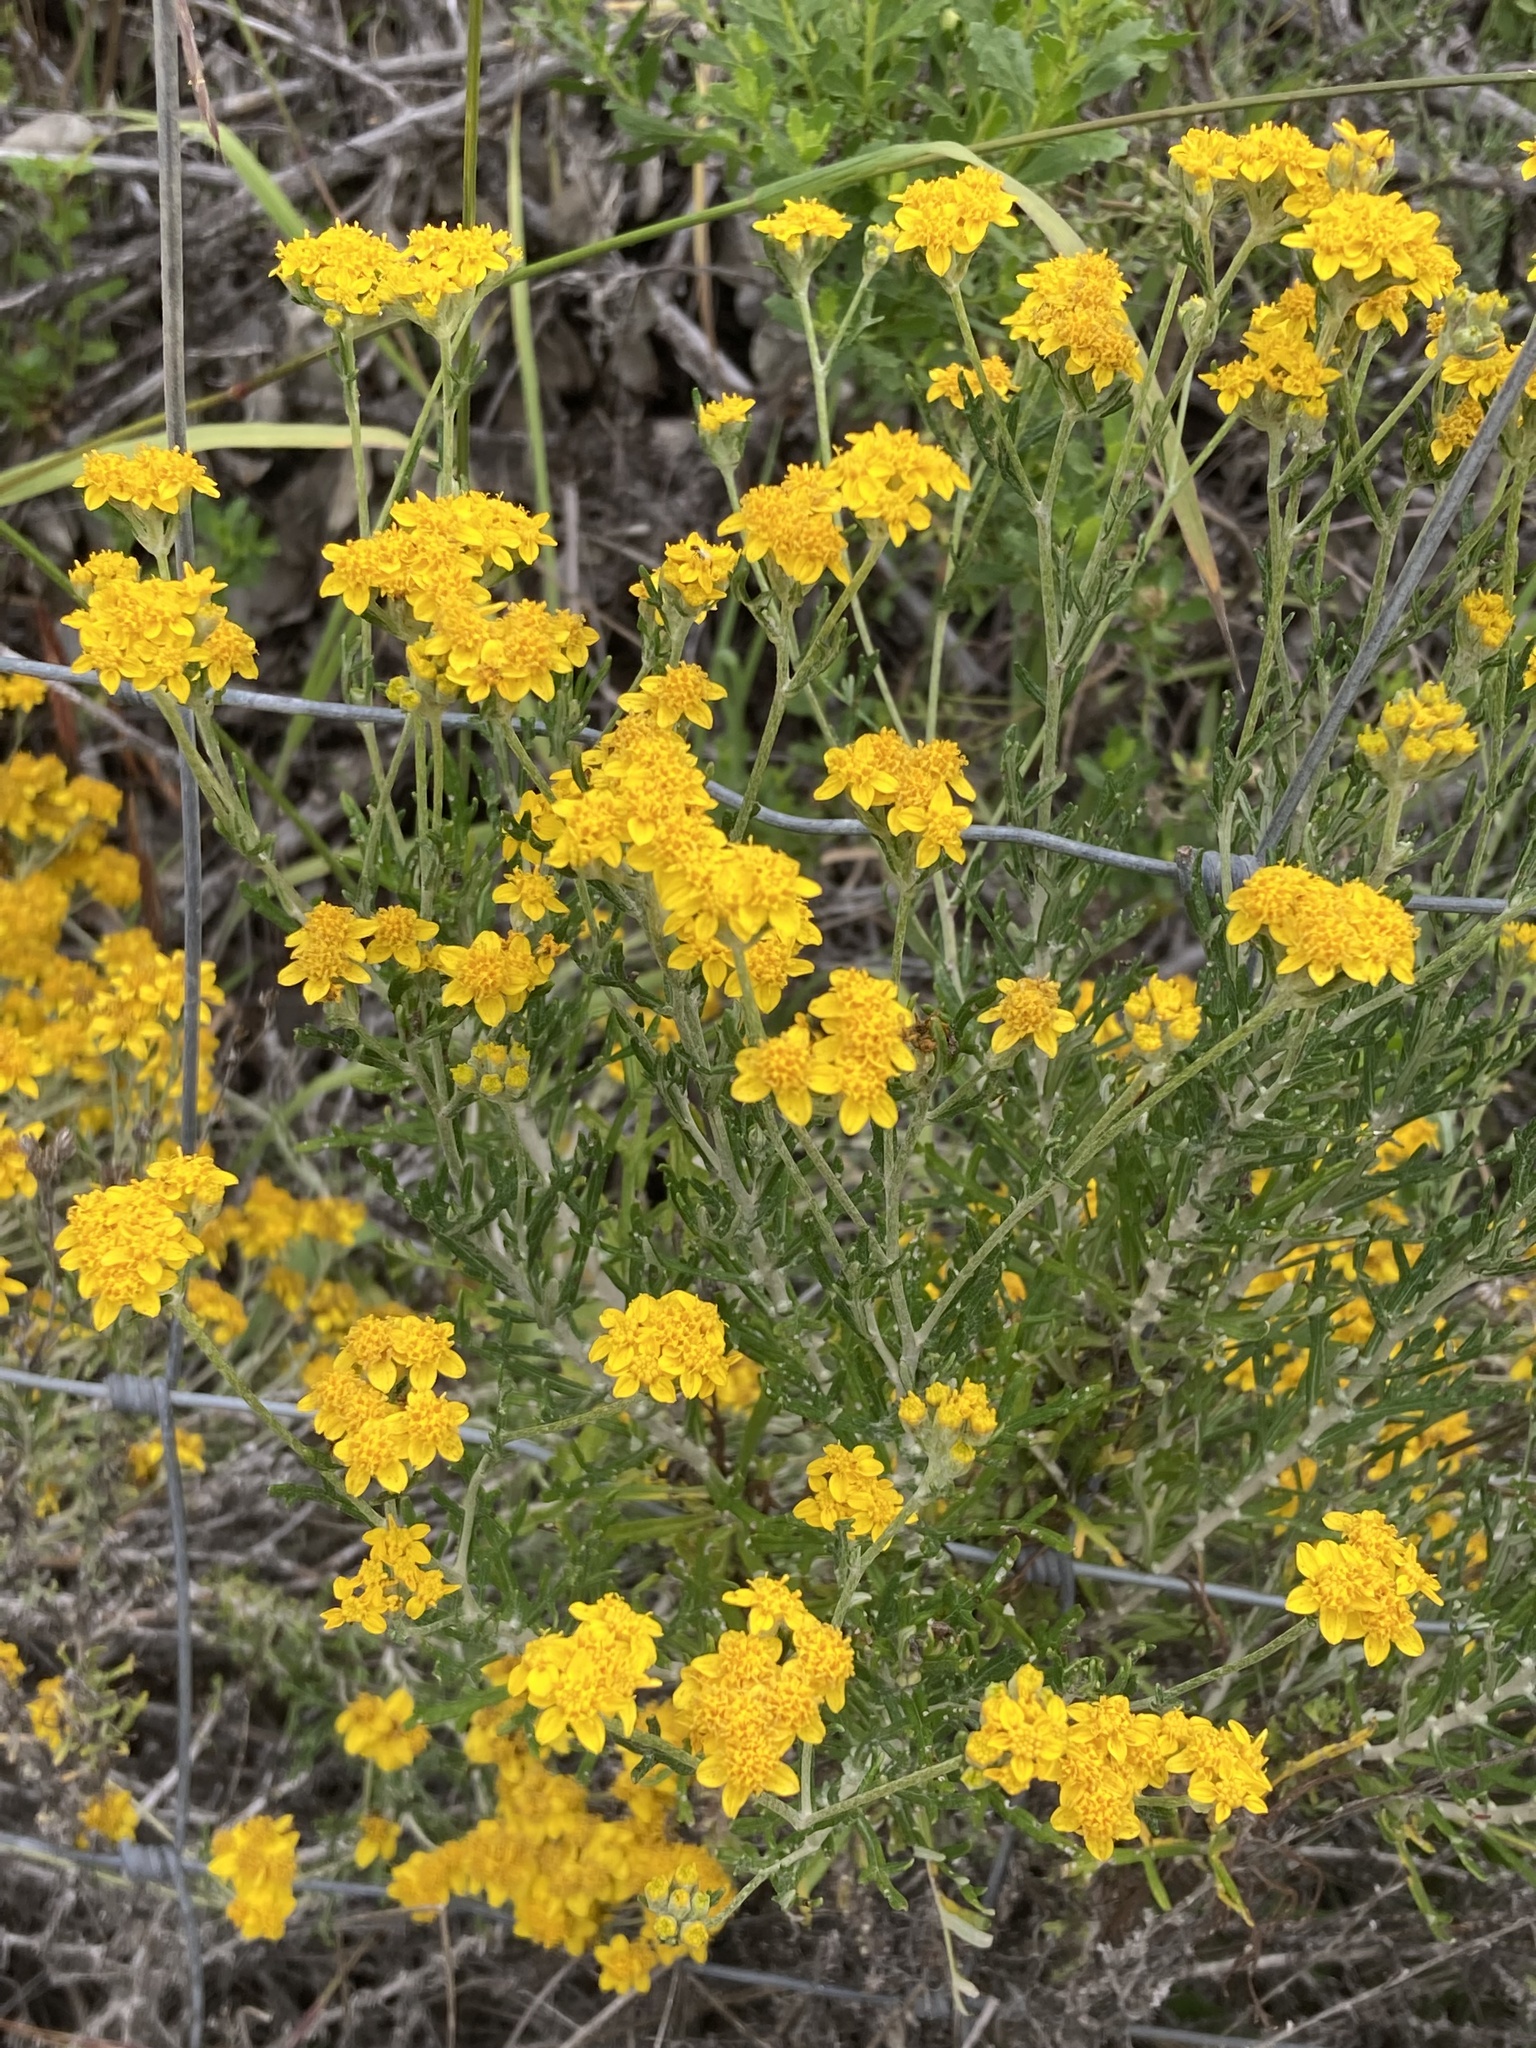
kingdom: Plantae
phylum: Tracheophyta
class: Magnoliopsida
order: Asterales
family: Asteraceae
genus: Eriophyllum
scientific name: Eriophyllum confertiflorum
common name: Golden-yarrow
